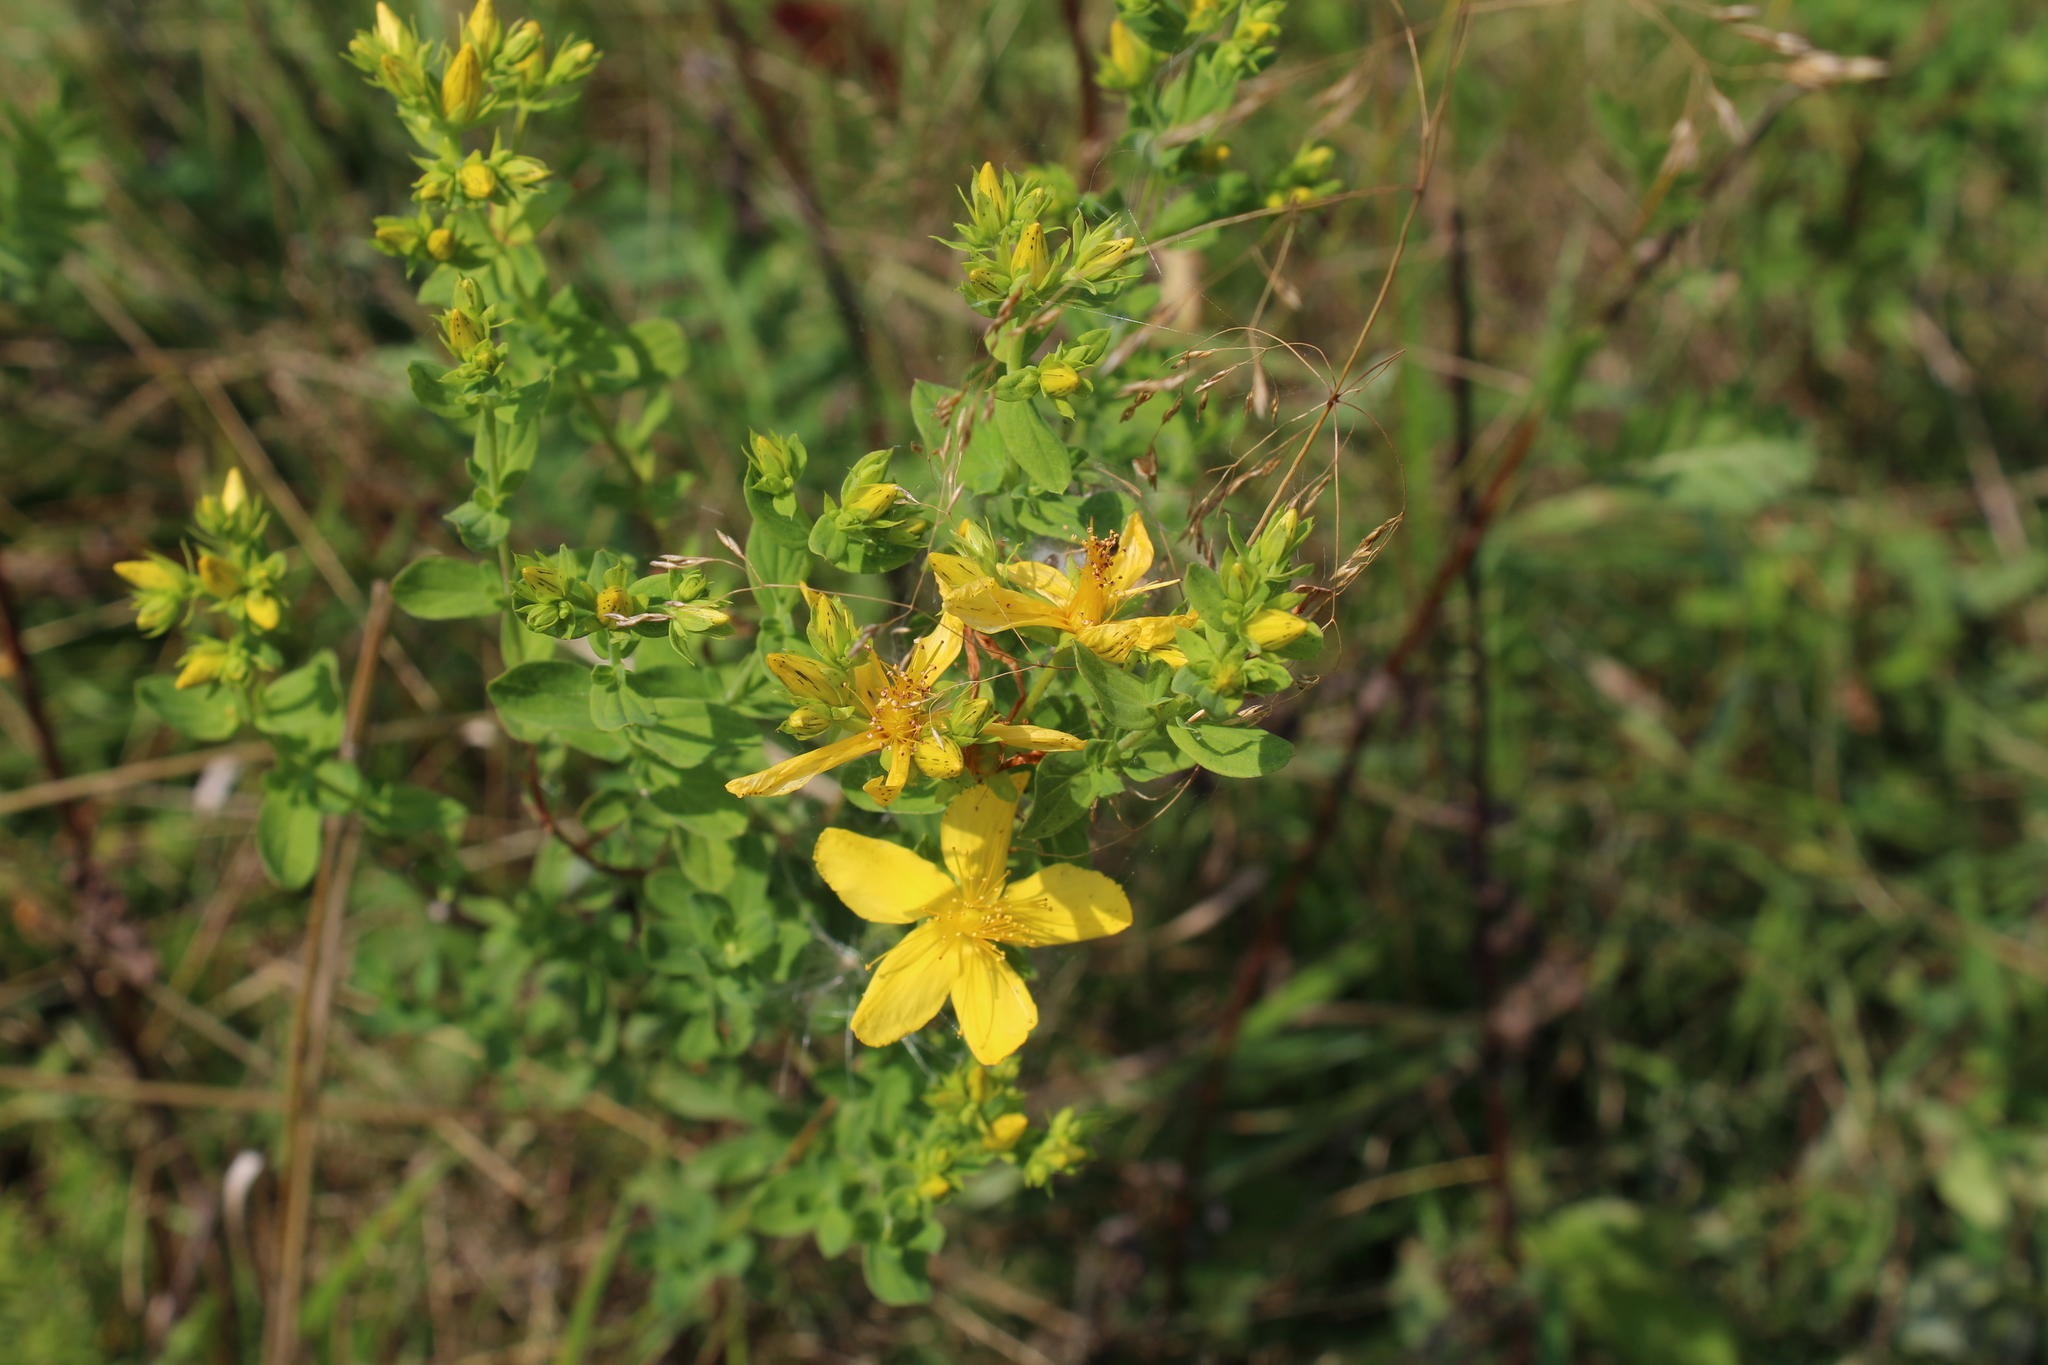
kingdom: Plantae
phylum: Tracheophyta
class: Magnoliopsida
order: Malpighiales
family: Hypericaceae
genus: Hypericum
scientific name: Hypericum perforatum
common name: Common st. johnswort
